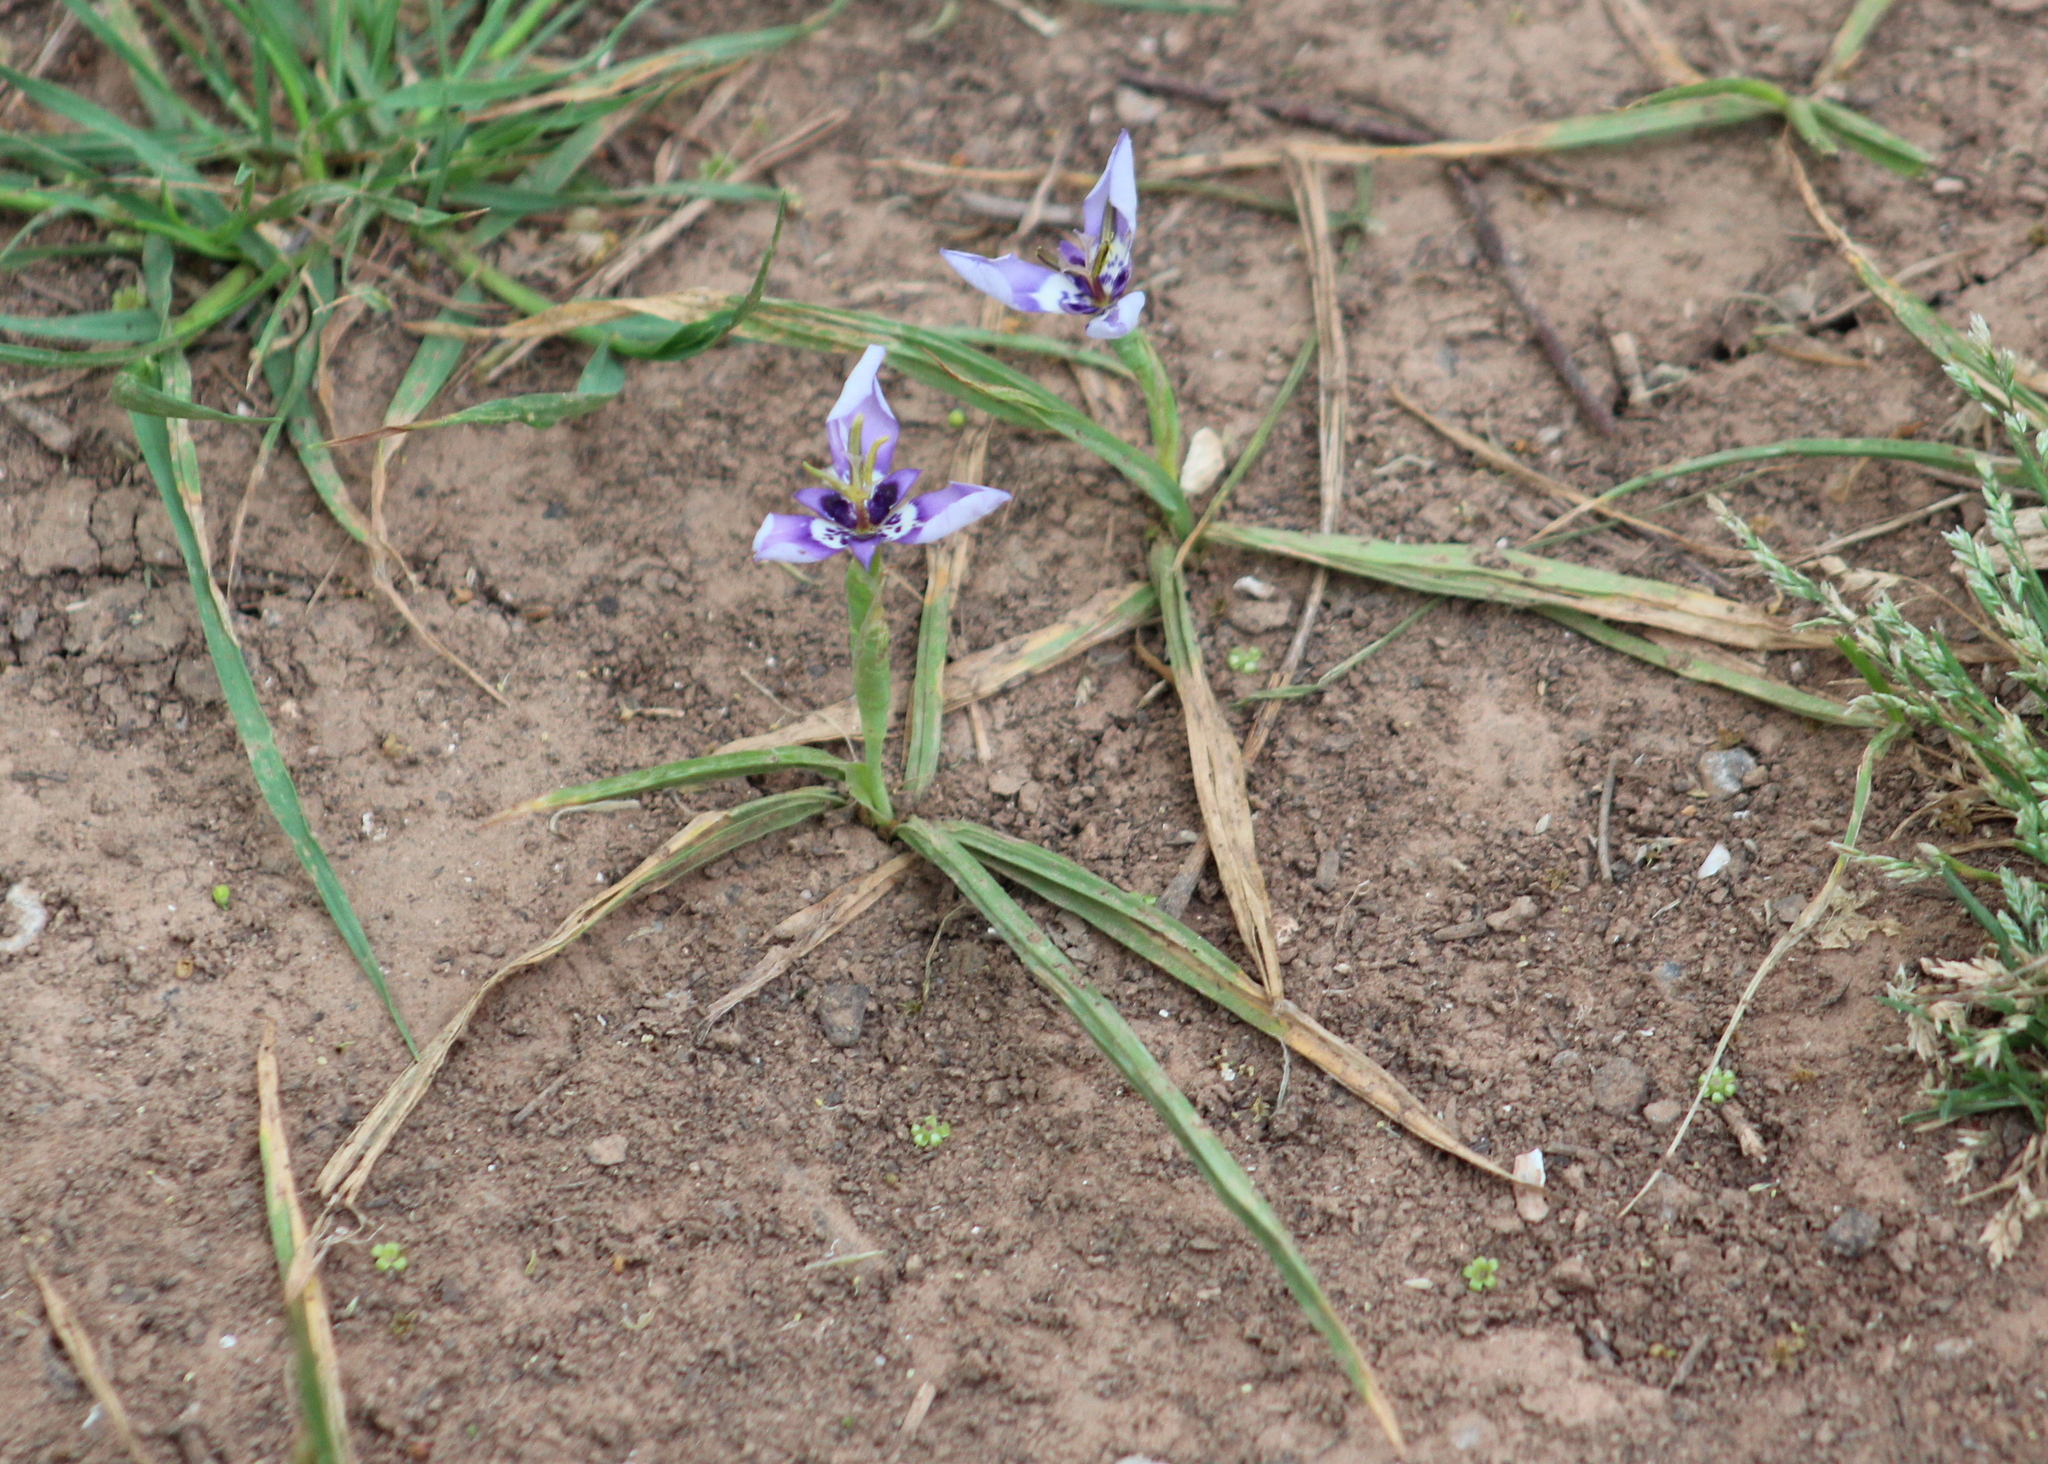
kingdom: Plantae
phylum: Tracheophyta
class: Liliopsida
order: Asparagales
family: Iridaceae
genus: Herbertia
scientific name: Herbertia lahue
